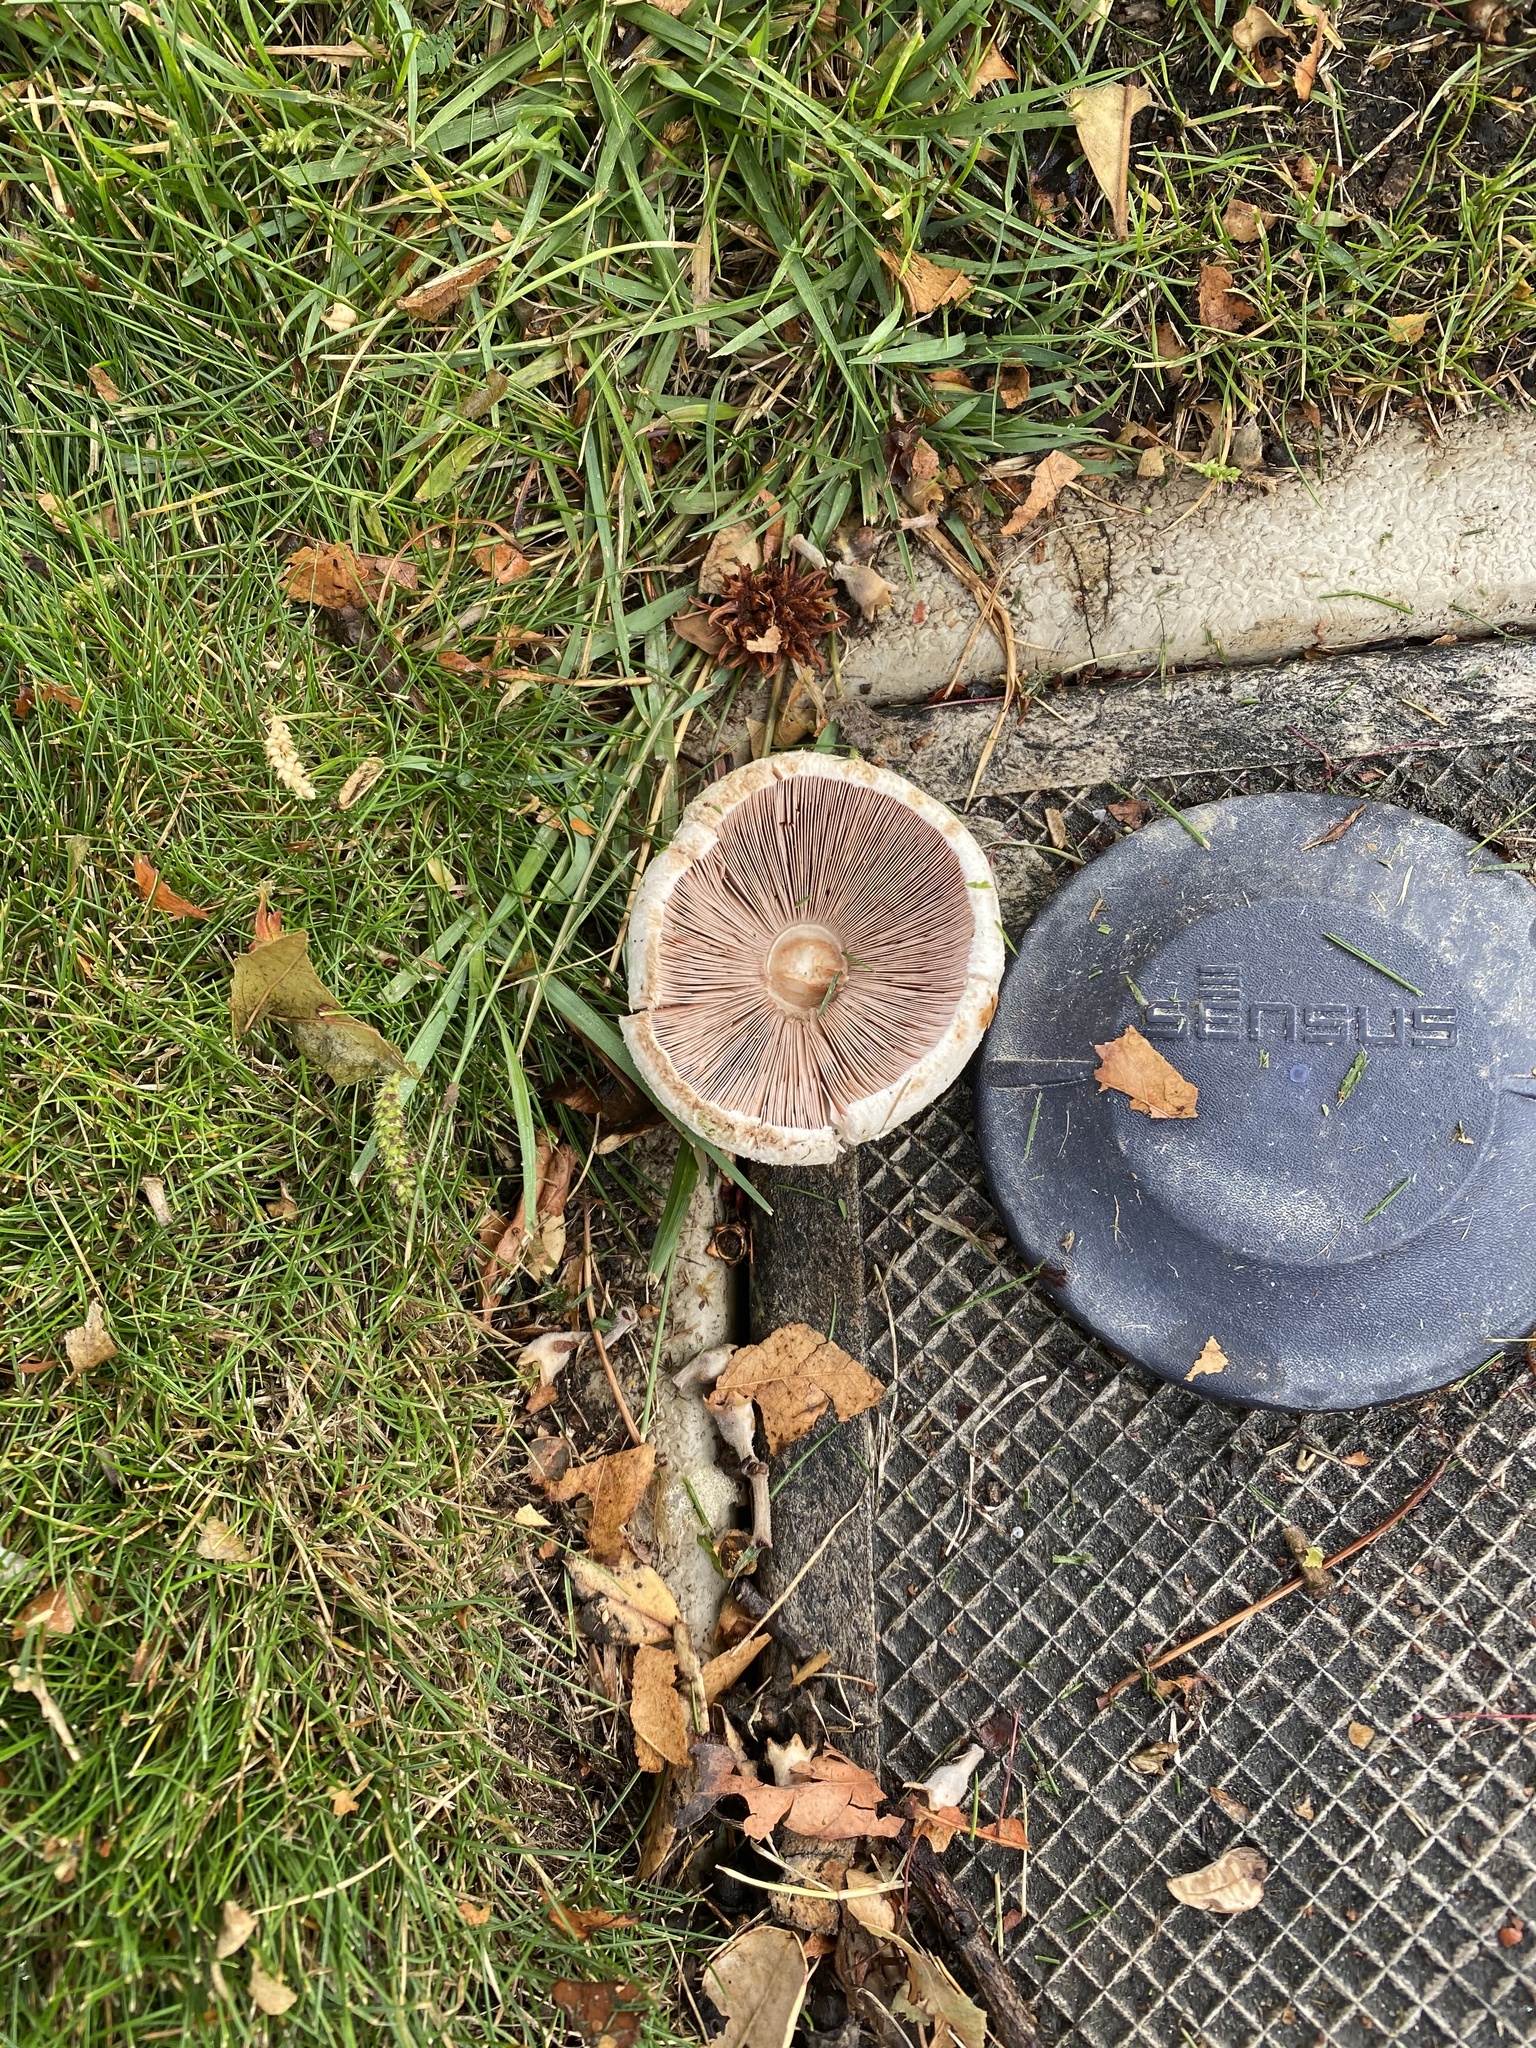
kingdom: Fungi
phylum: Basidiomycota
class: Agaricomycetes
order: Agaricales
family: Agaricaceae
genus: Agaricus
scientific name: Agaricus xanthodermus
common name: Yellow stainer
